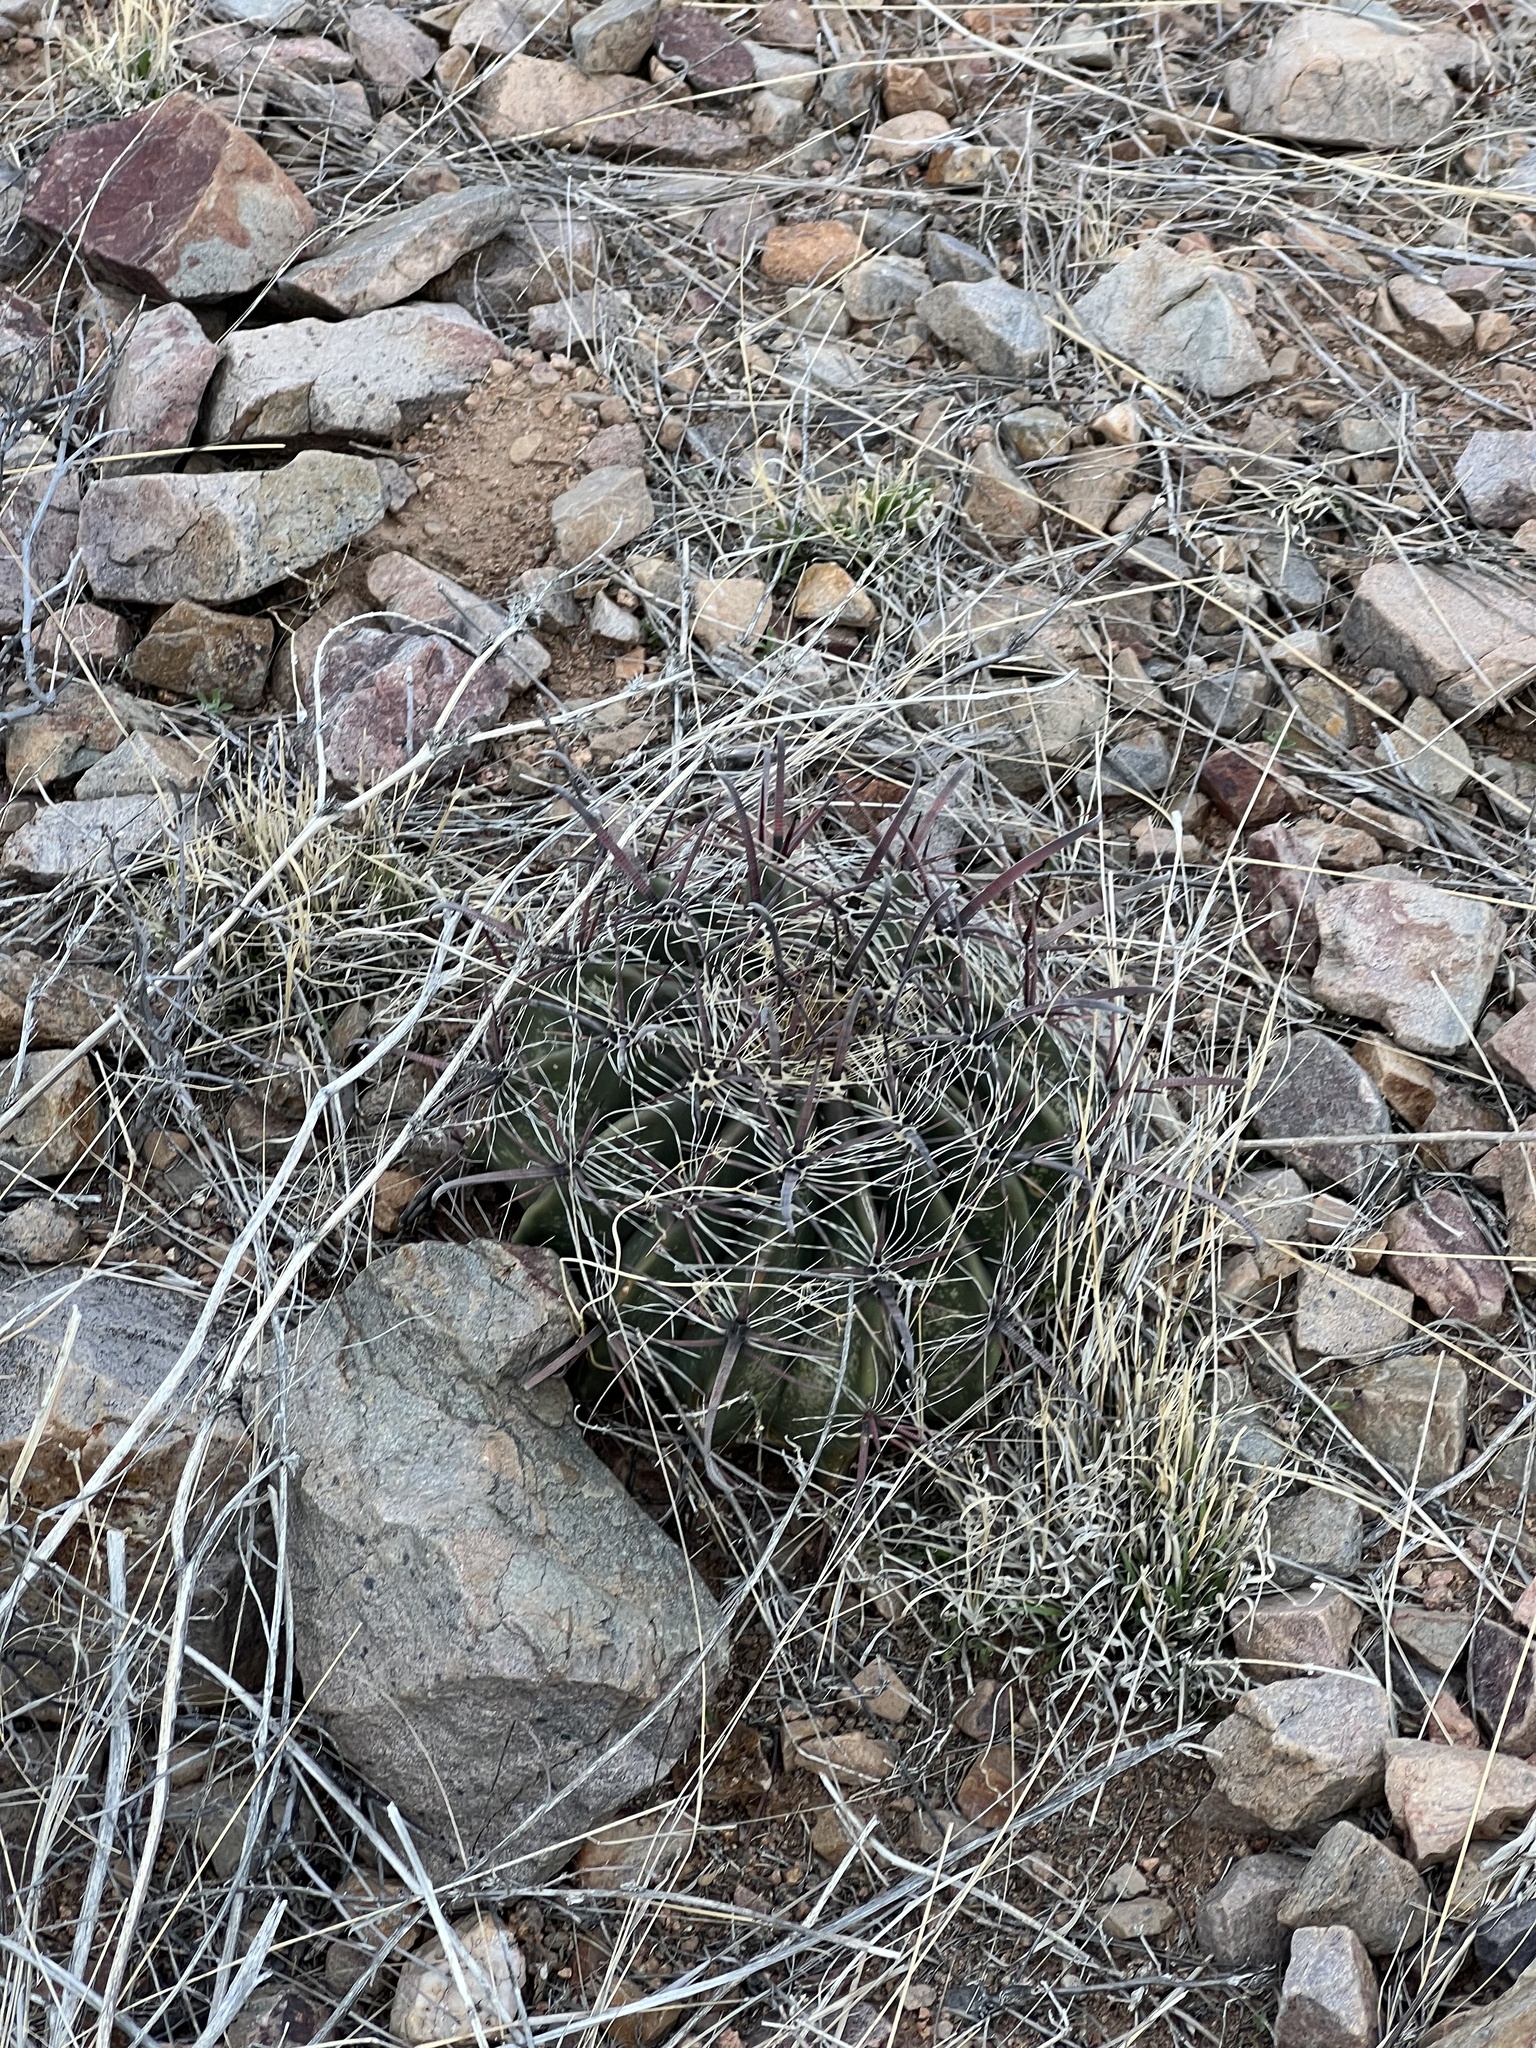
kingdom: Plantae
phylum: Tracheophyta
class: Magnoliopsida
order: Caryophyllales
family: Cactaceae
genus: Ferocactus
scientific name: Ferocactus wislizeni
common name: Candy barrel cactus
